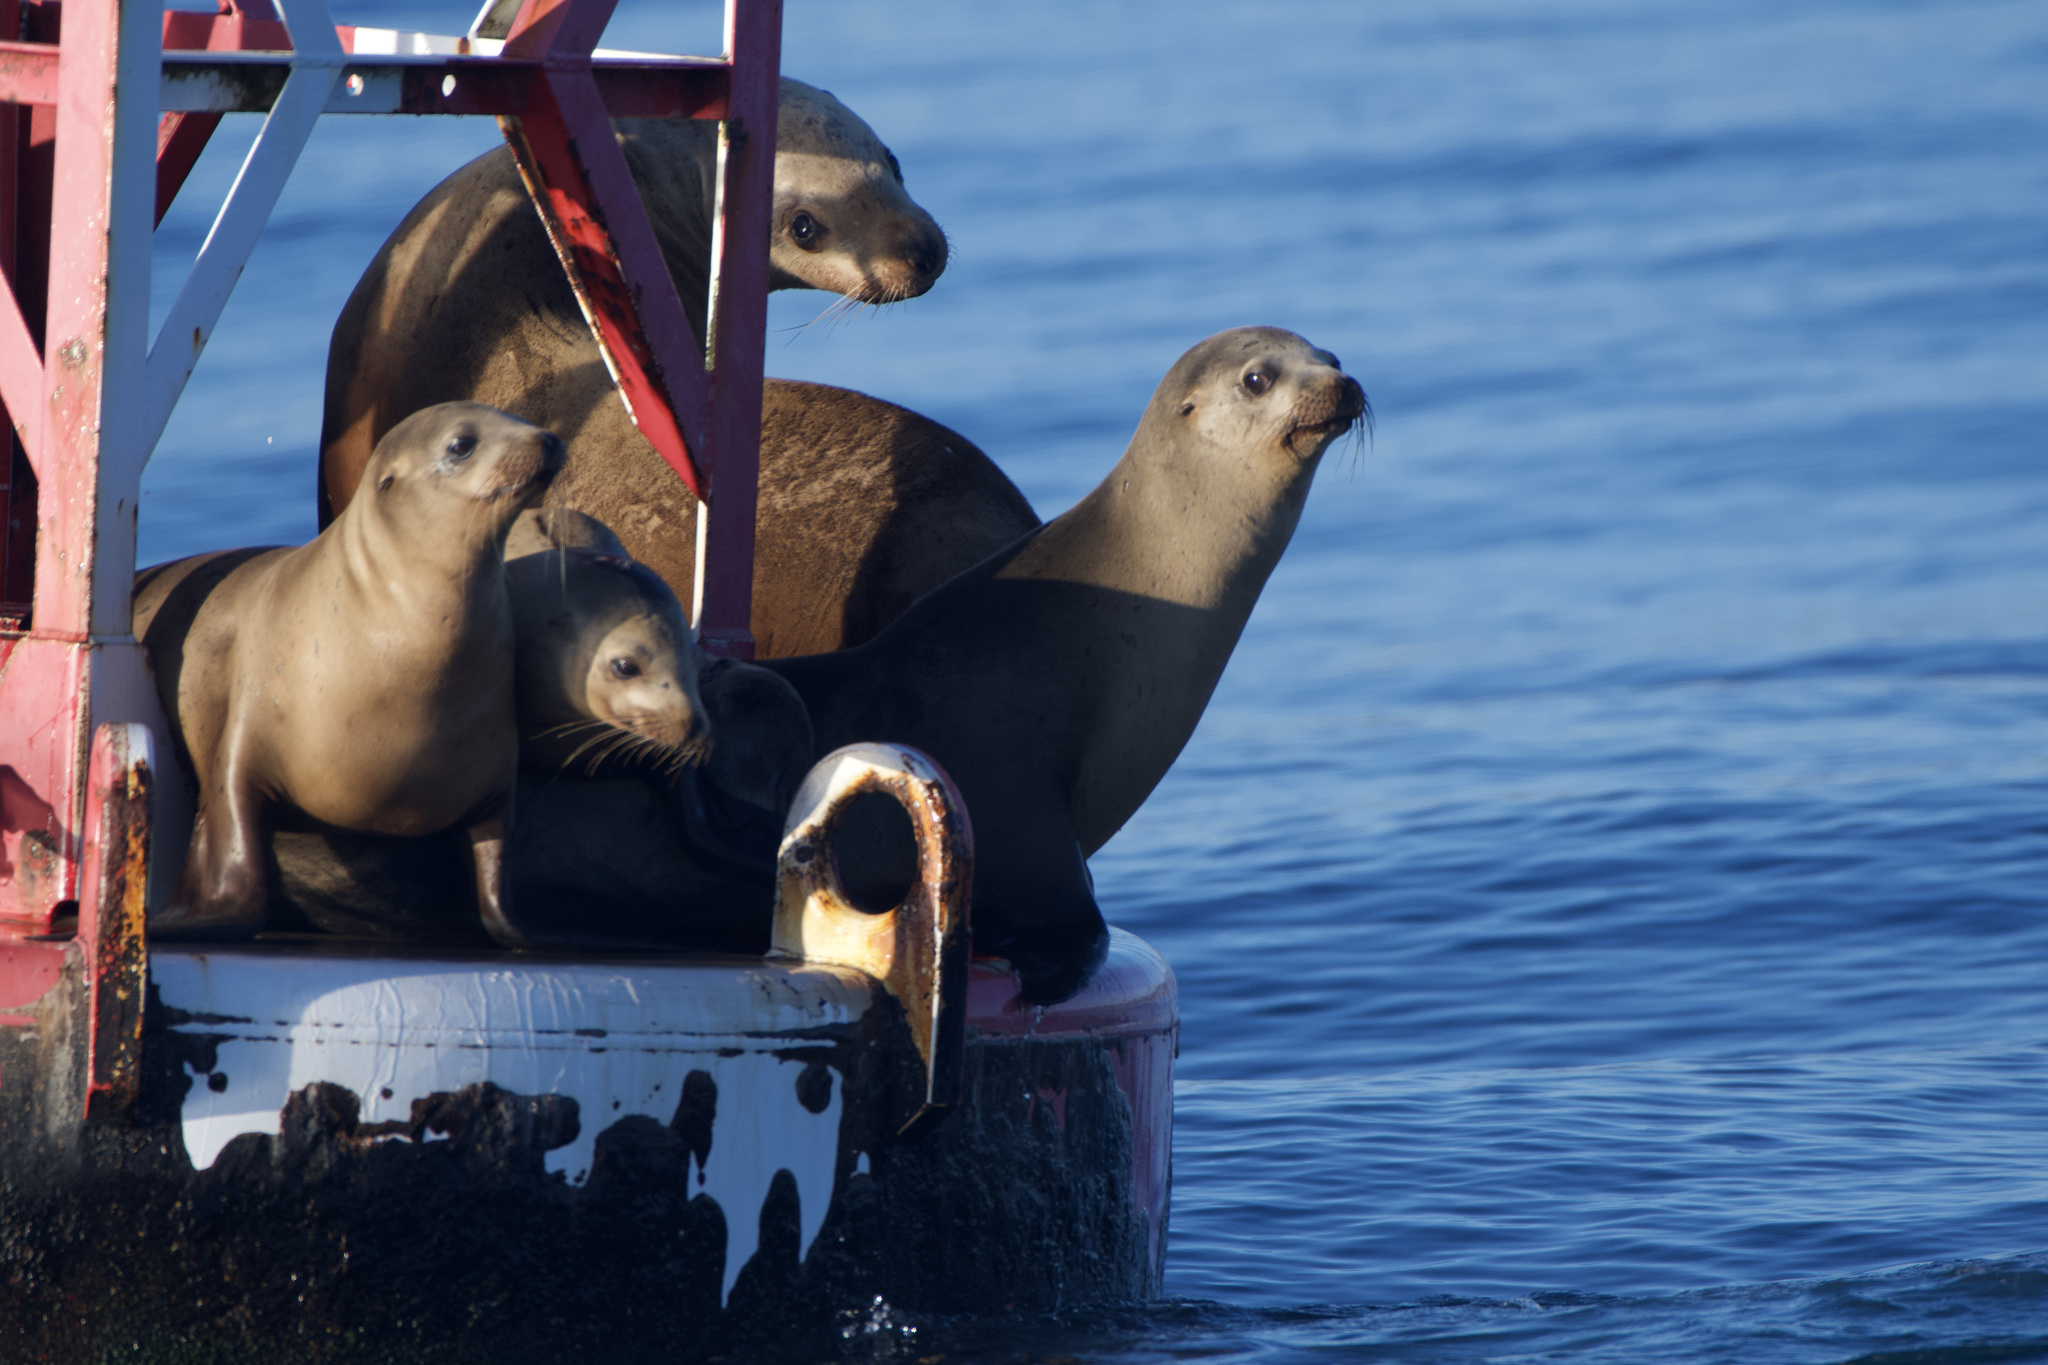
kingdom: Animalia
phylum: Chordata
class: Mammalia
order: Carnivora
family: Otariidae
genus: Zalophus
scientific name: Zalophus californianus
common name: California sea lion
